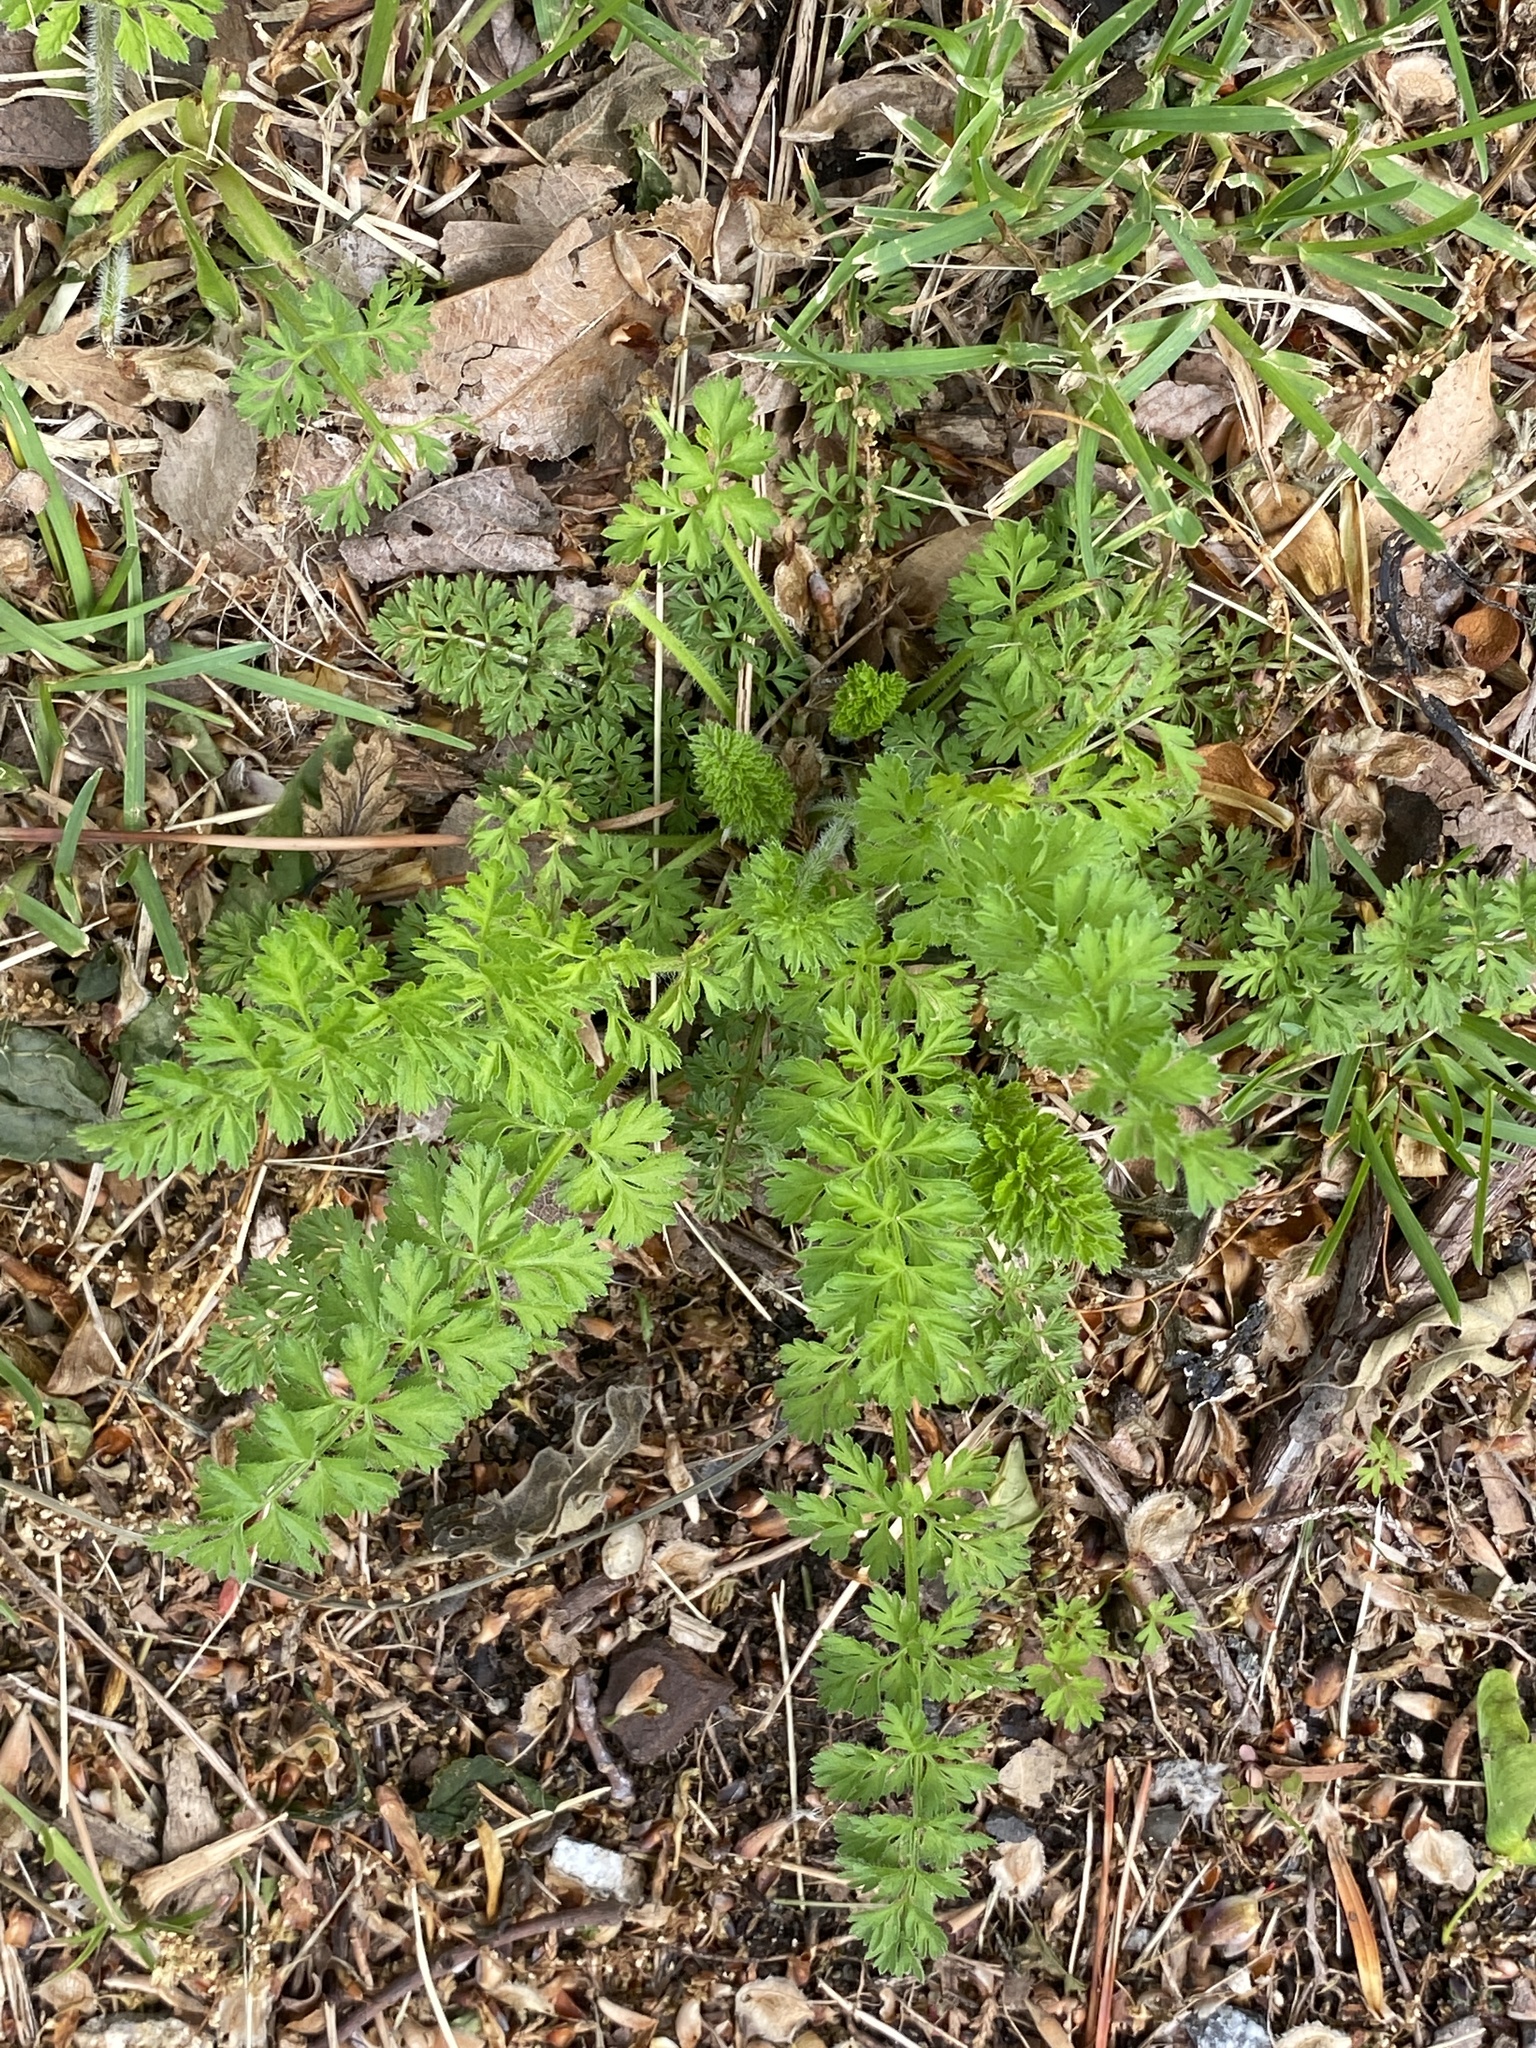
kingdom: Plantae
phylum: Tracheophyta
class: Magnoliopsida
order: Apiales
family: Apiaceae
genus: Daucus
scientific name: Daucus carota
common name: Wild carrot
